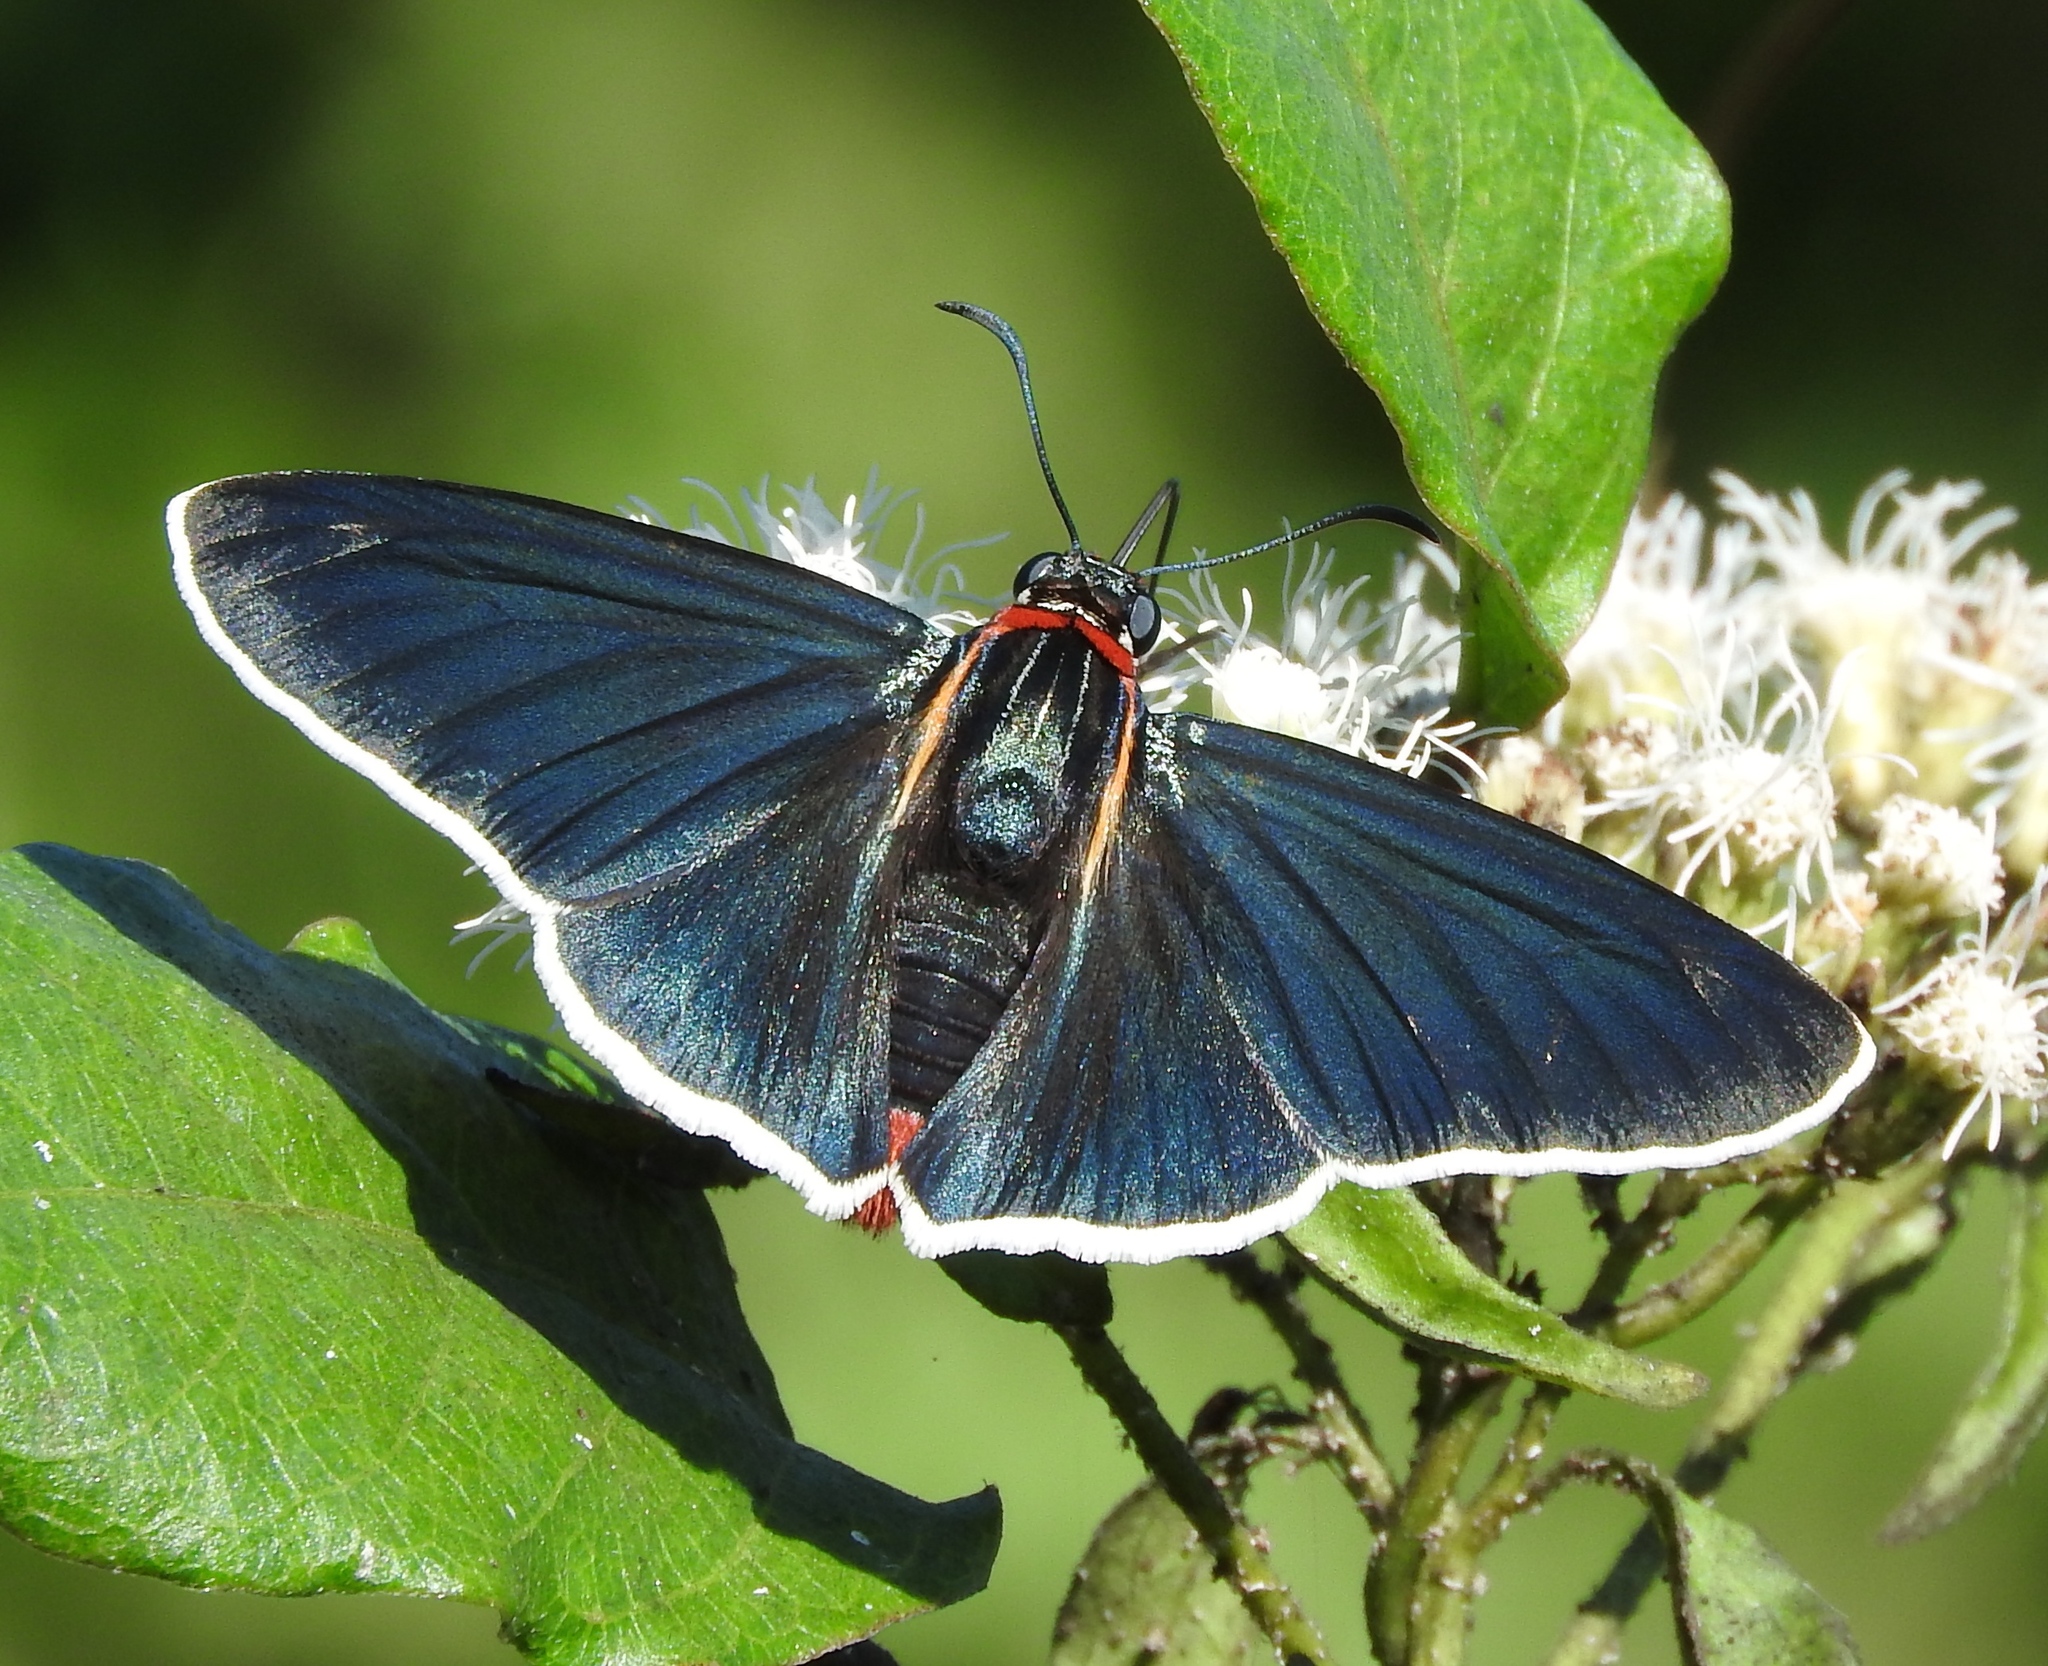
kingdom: Animalia
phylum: Arthropoda
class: Insecta
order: Lepidoptera
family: Hesperiidae
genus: Elbella
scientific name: Elbella scylla
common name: Scylla firetip
